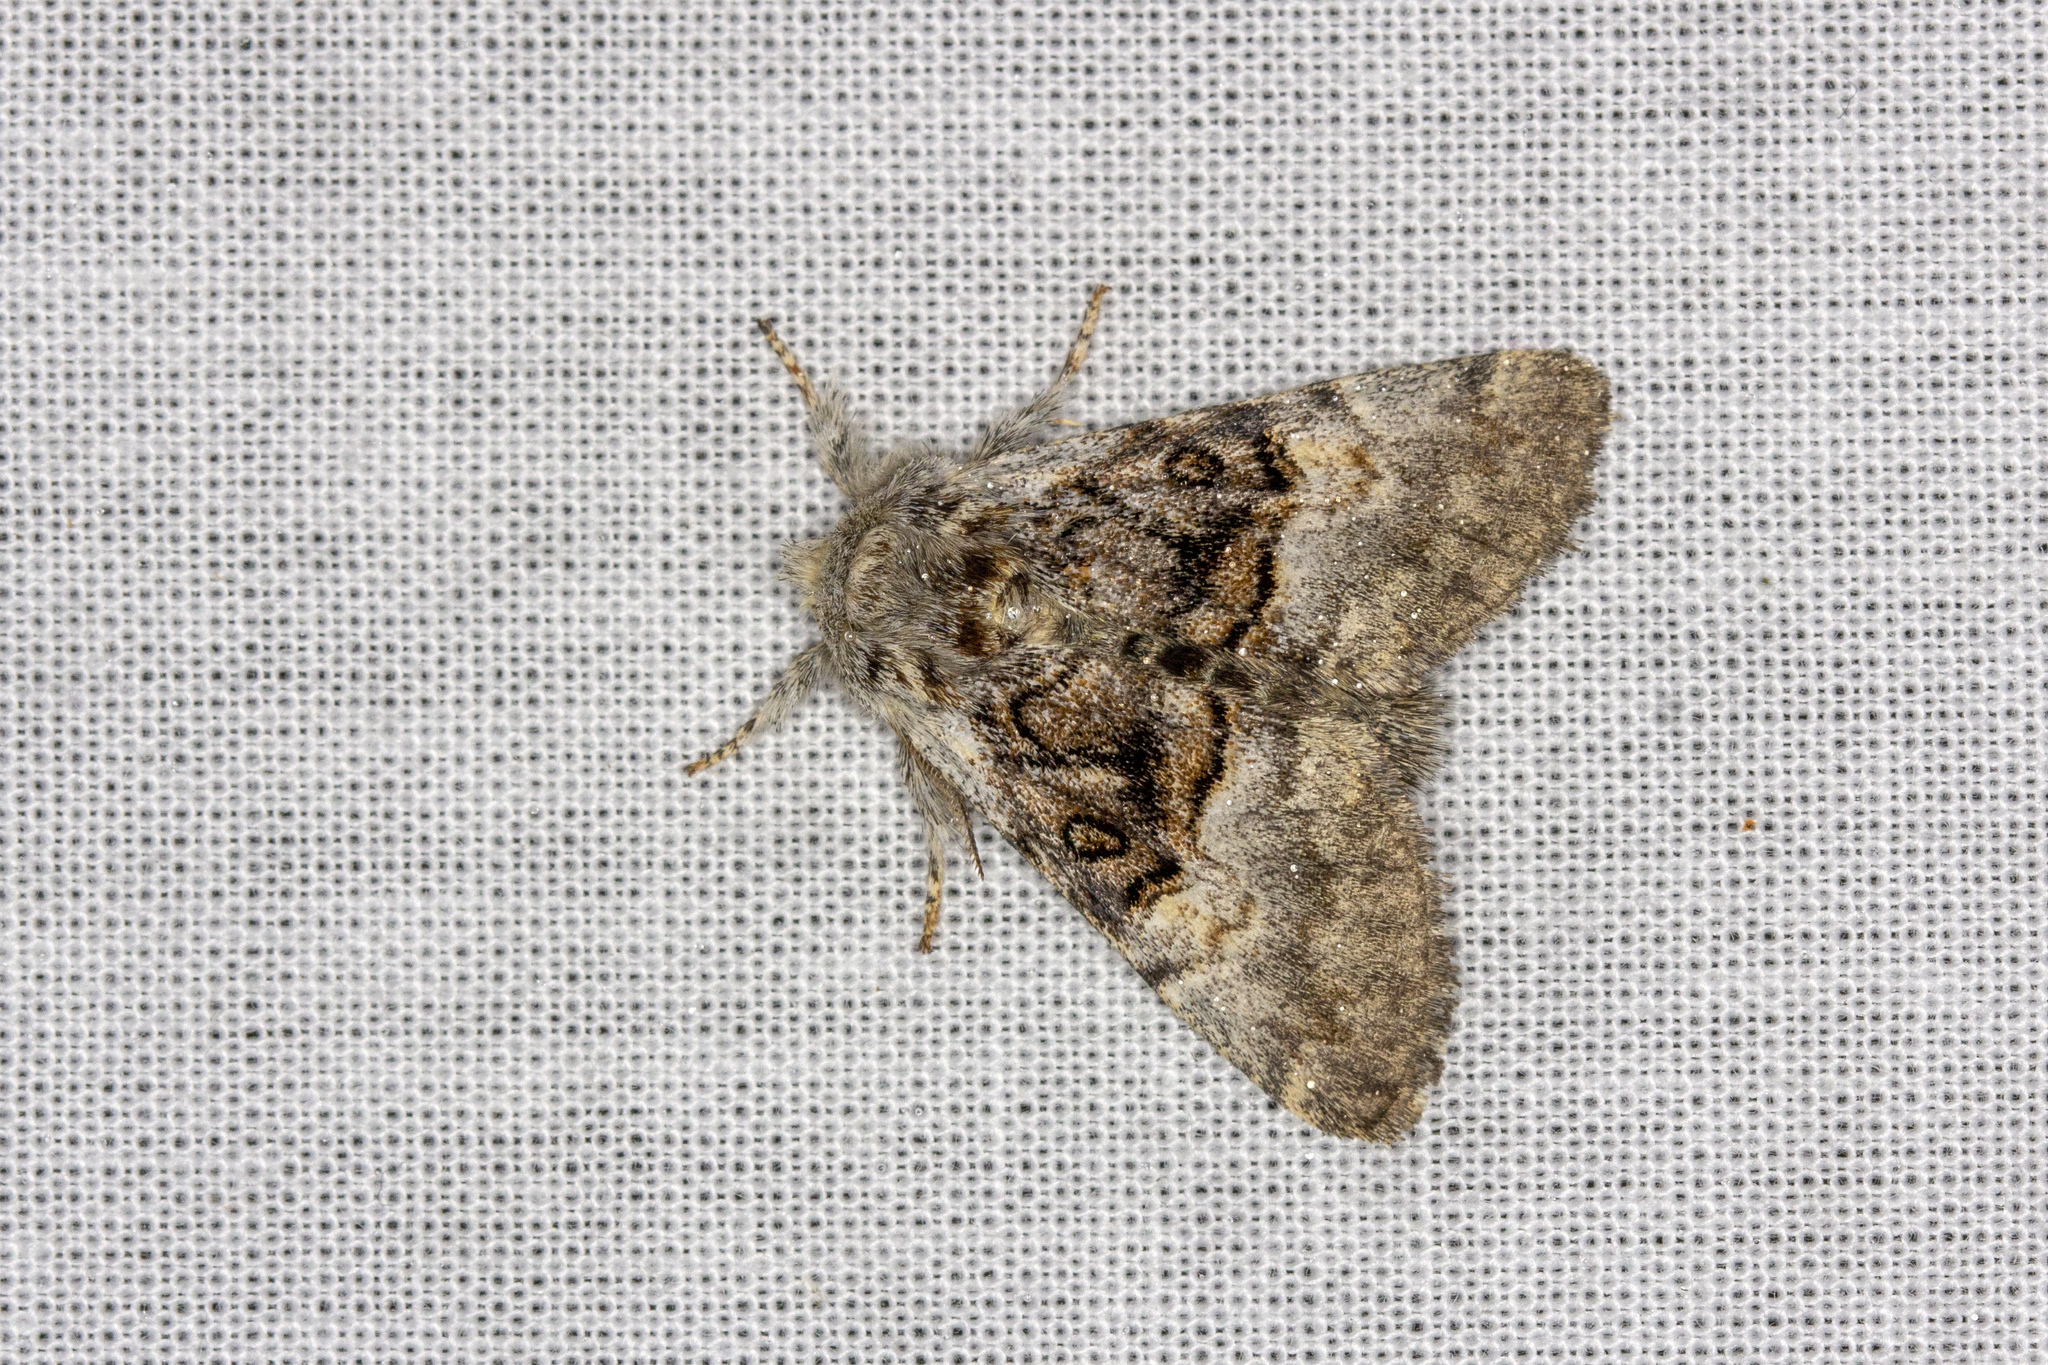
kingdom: Animalia
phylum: Arthropoda
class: Insecta
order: Lepidoptera
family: Noctuidae
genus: Colocasia
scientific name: Colocasia coryli
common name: Nut-tree tussock
